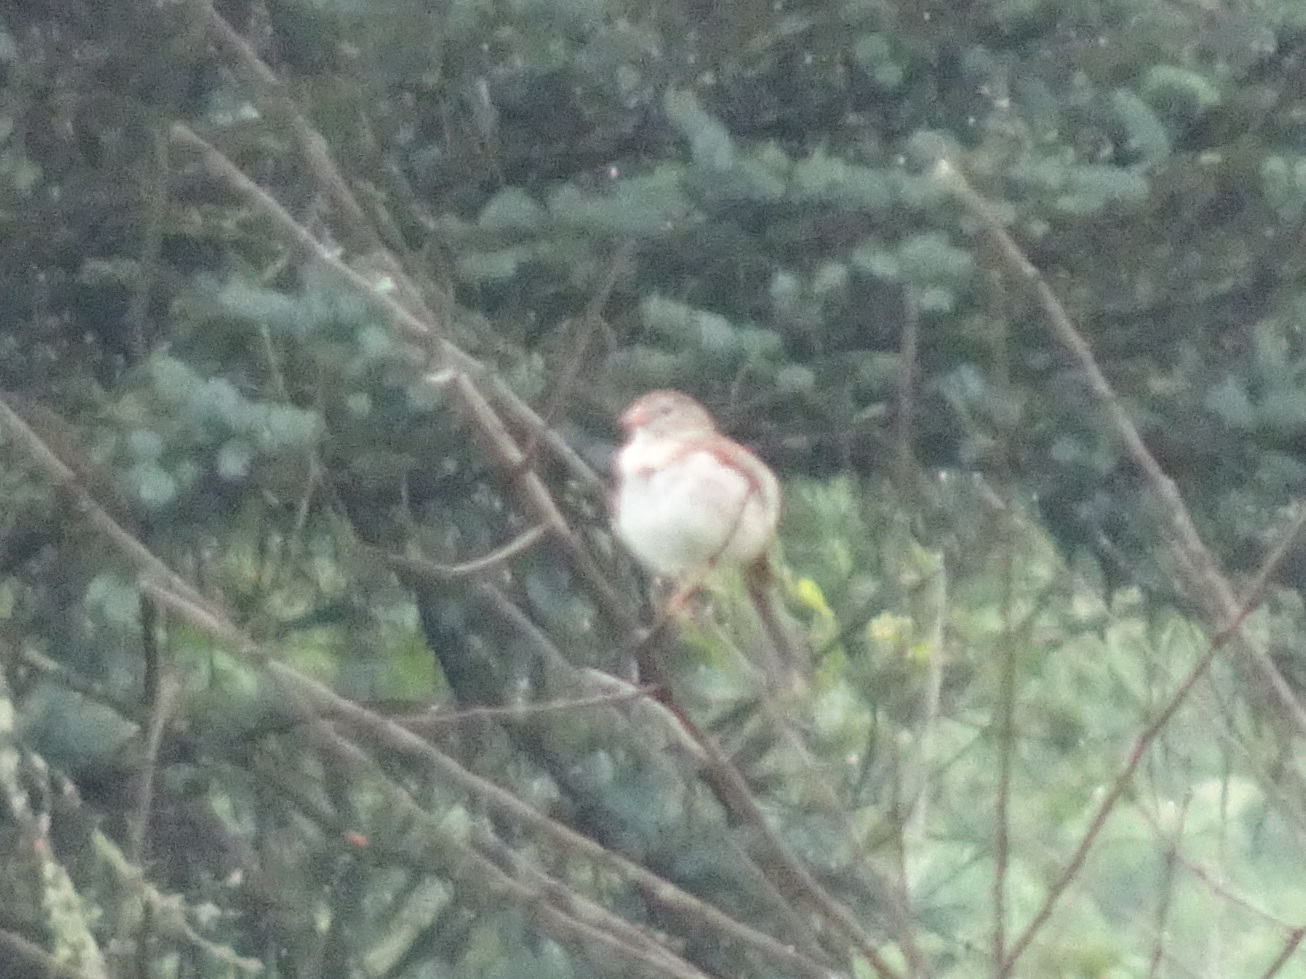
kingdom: Animalia
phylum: Chordata
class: Aves
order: Passeriformes
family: Passerellidae
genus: Spizella
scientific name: Spizella pusilla
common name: Field sparrow
